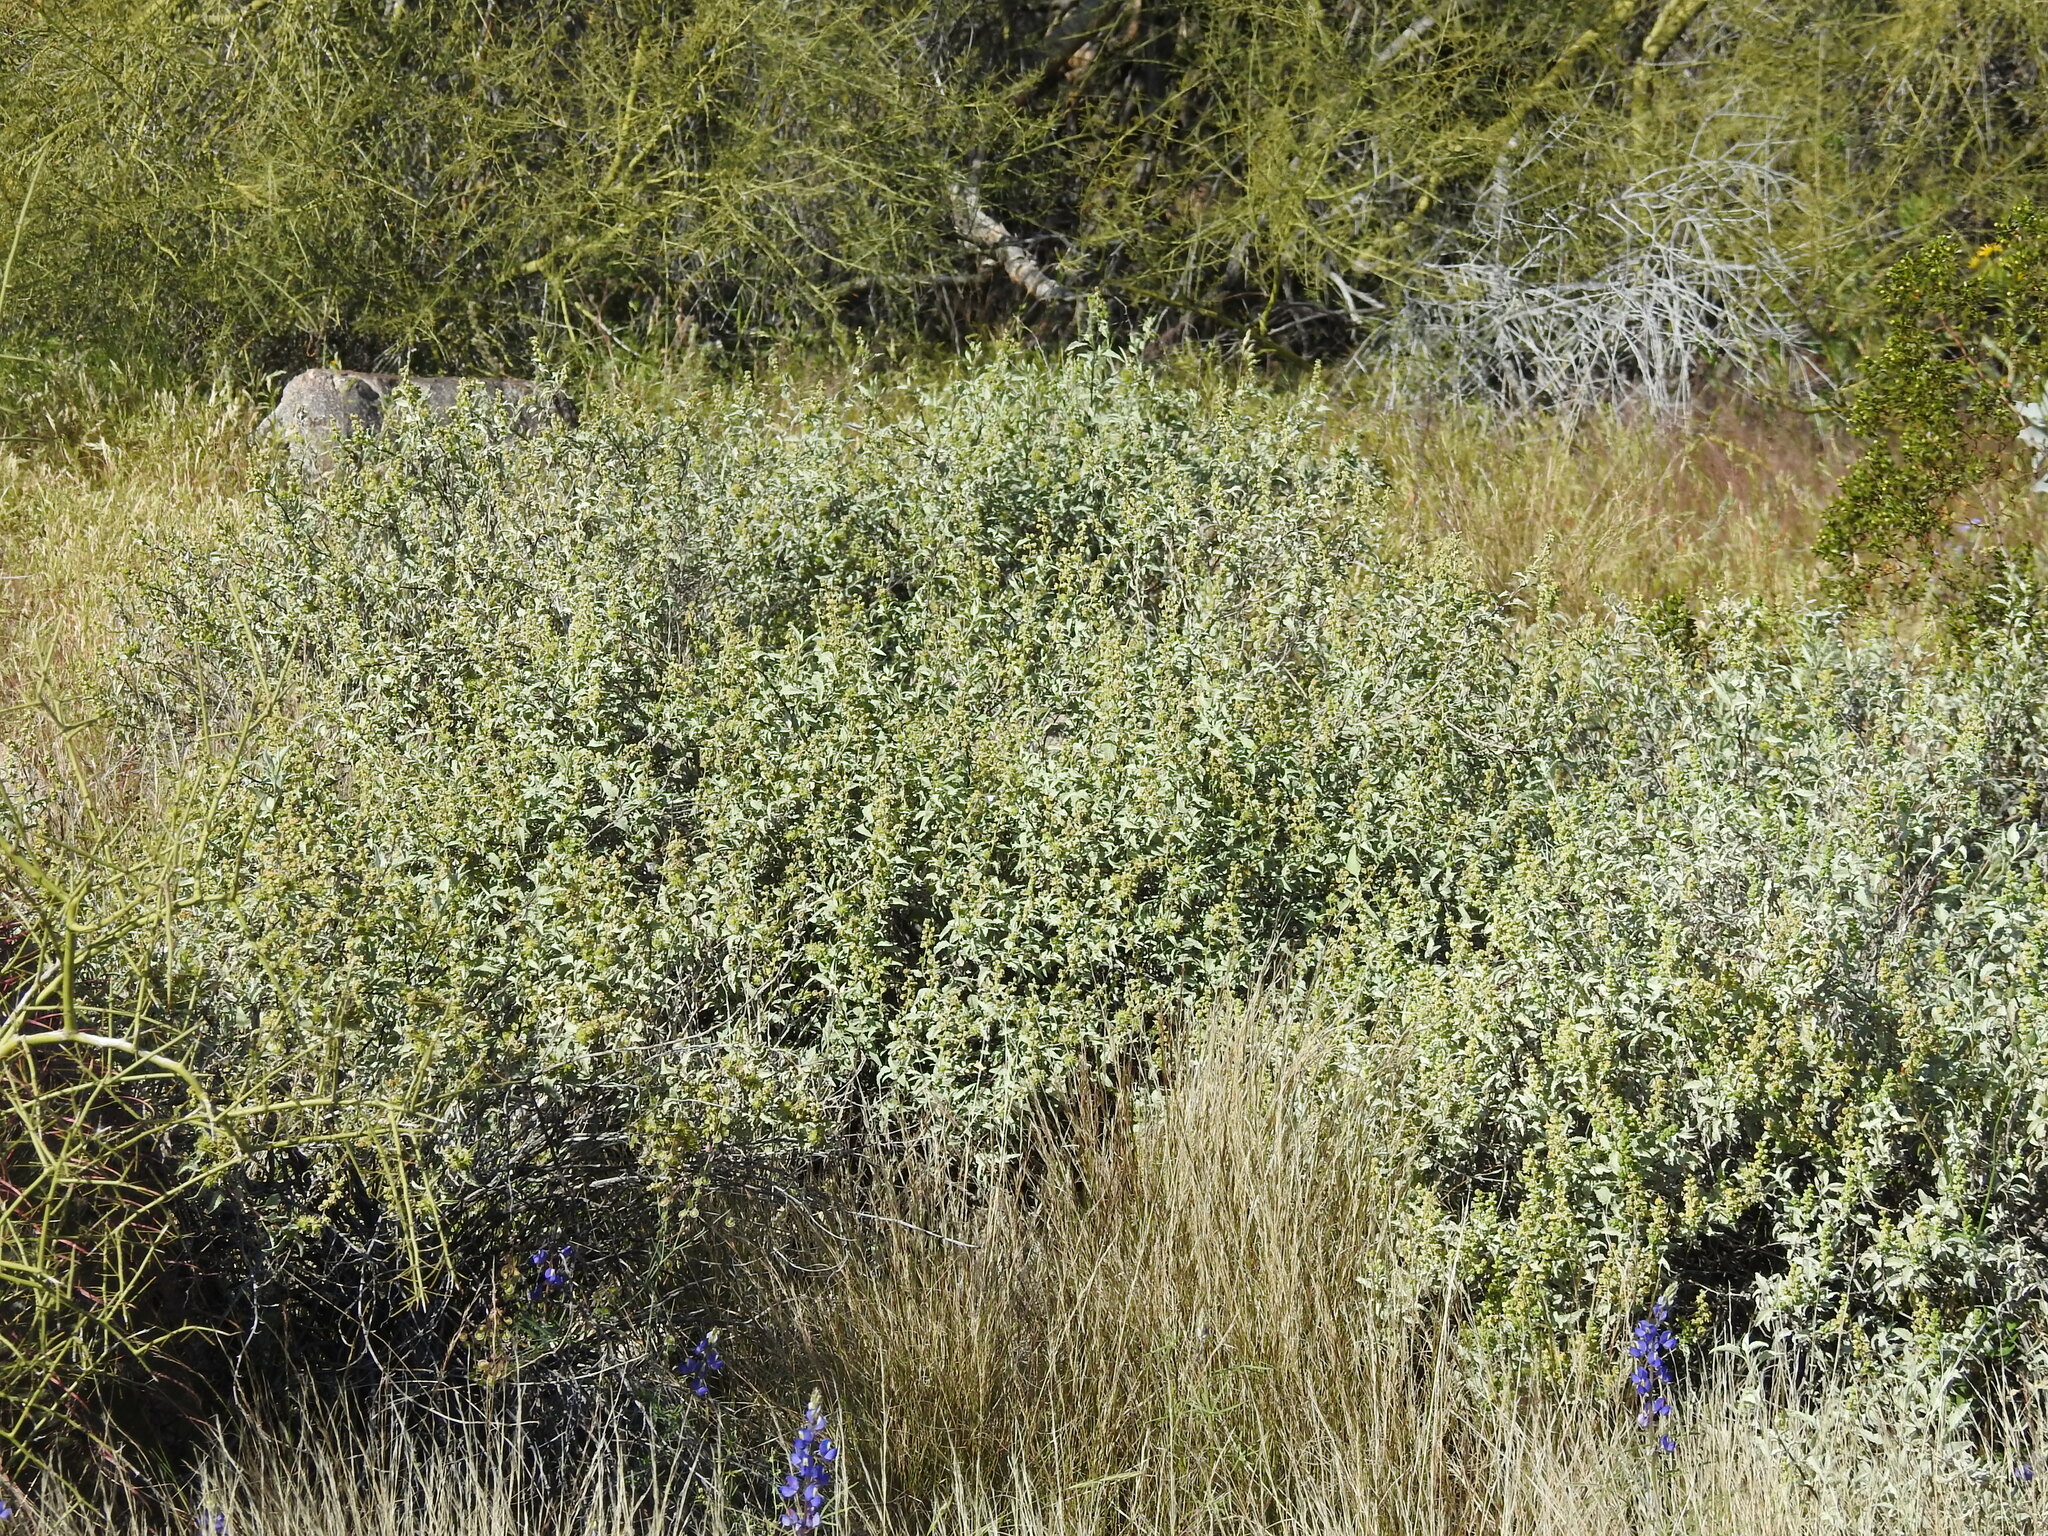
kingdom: Plantae
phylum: Tracheophyta
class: Magnoliopsida
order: Asterales
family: Asteraceae
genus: Ambrosia
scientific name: Ambrosia deltoidea
